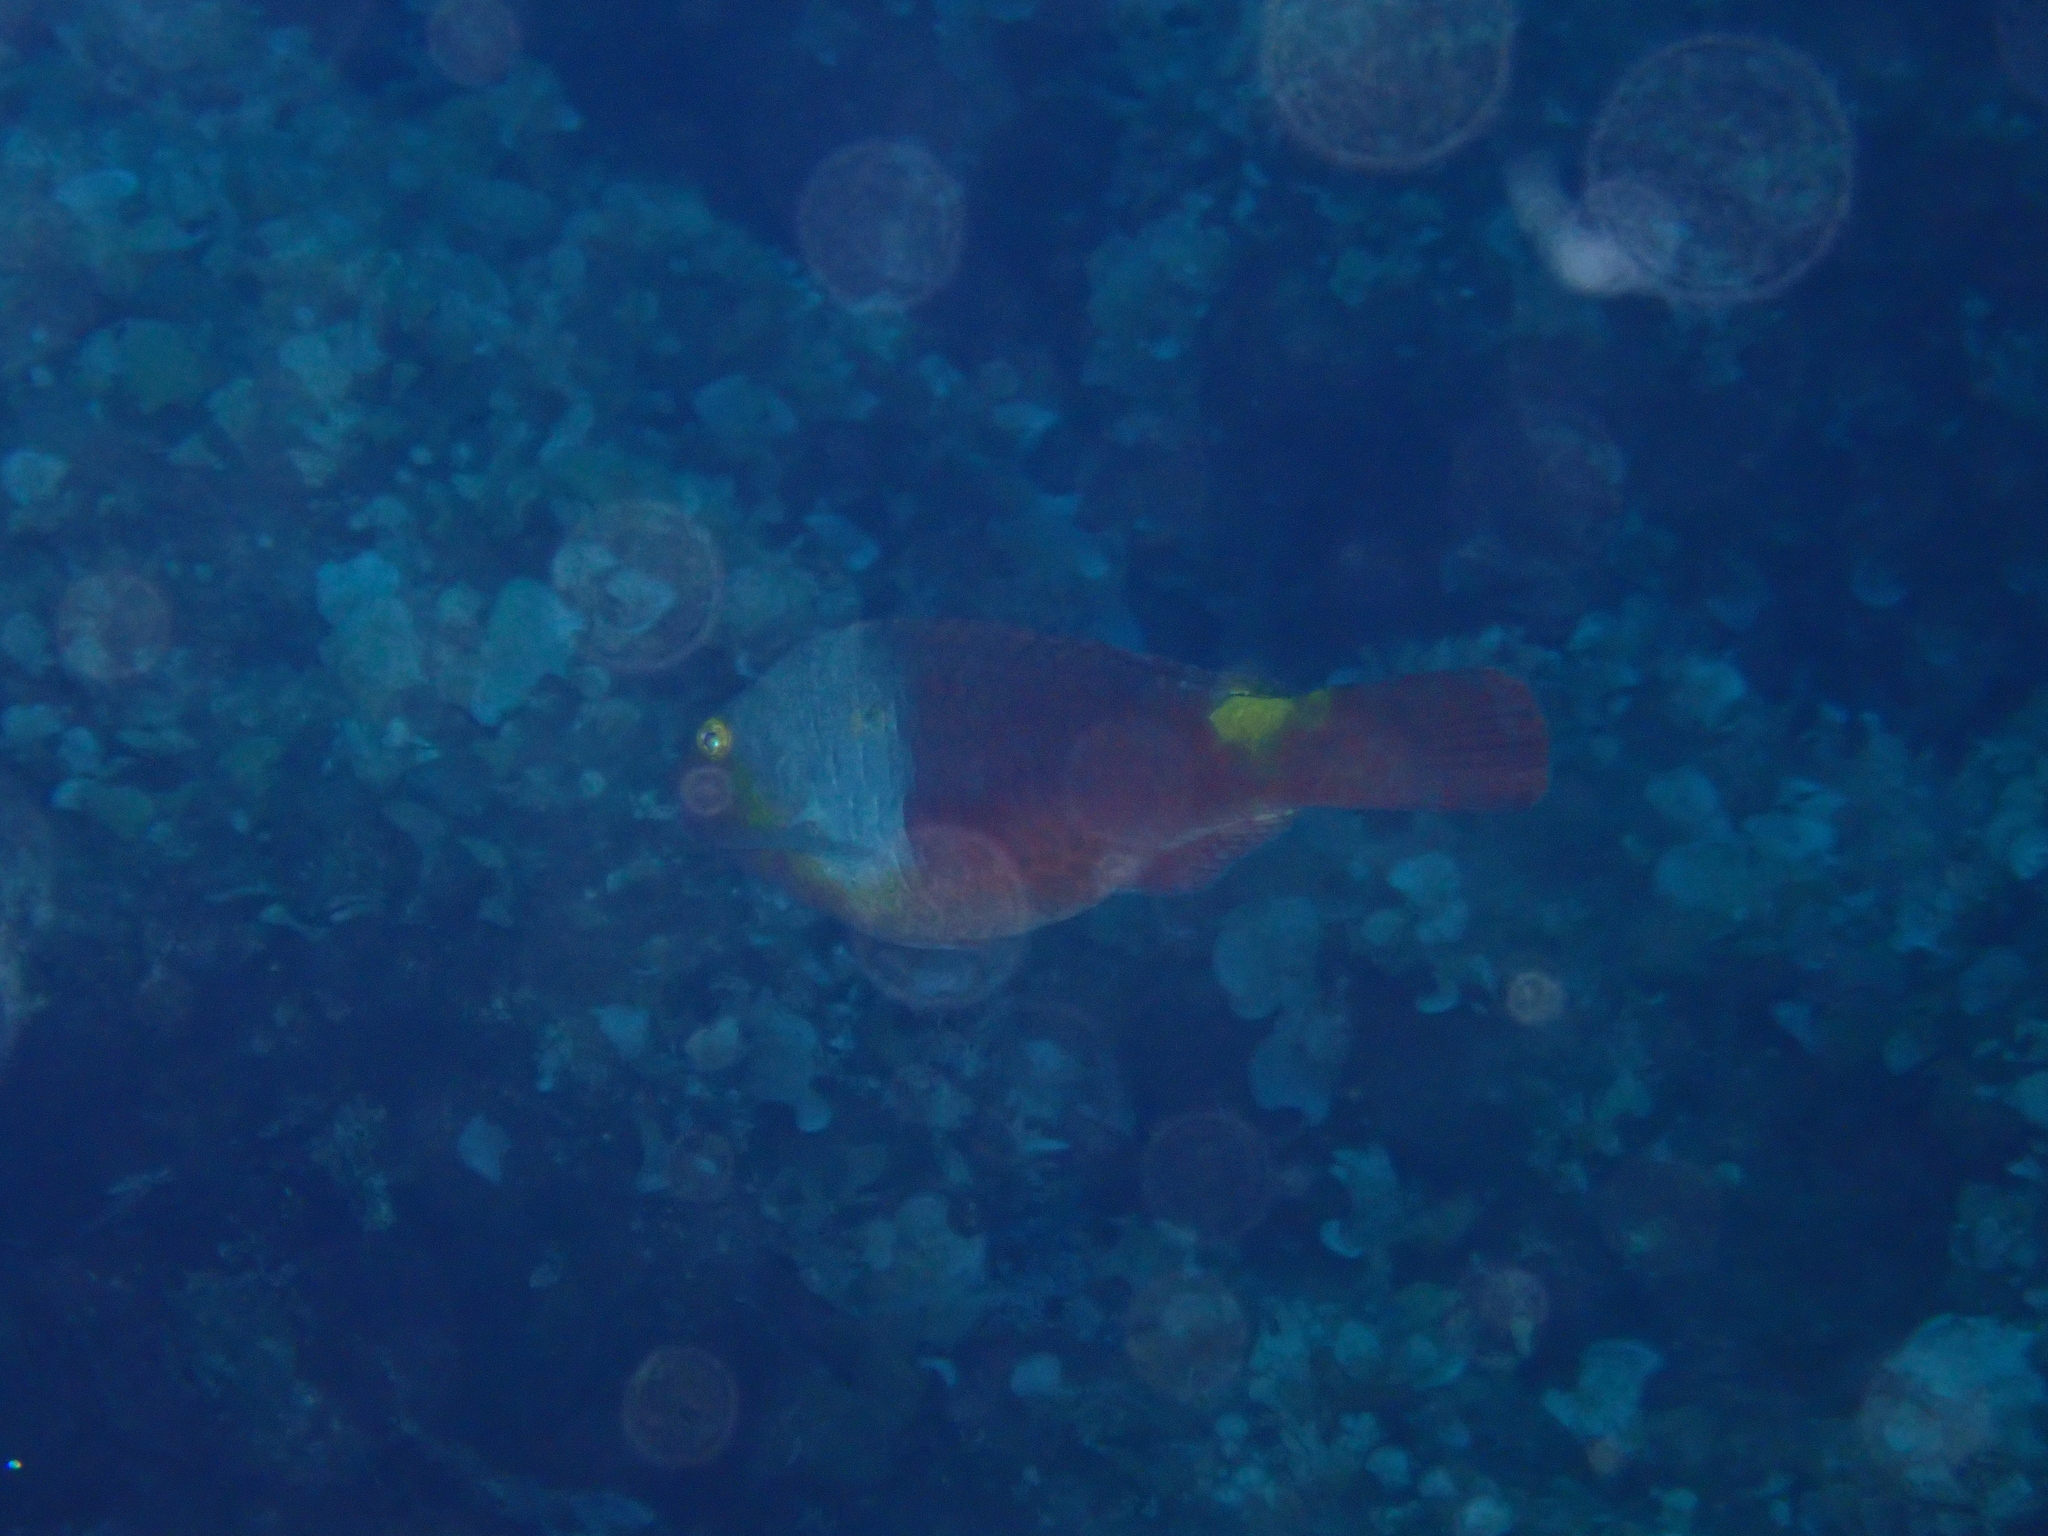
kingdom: Animalia
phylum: Chordata
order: Perciformes
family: Scaridae
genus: Sparisoma
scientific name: Sparisoma cretense
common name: Parrotfish
